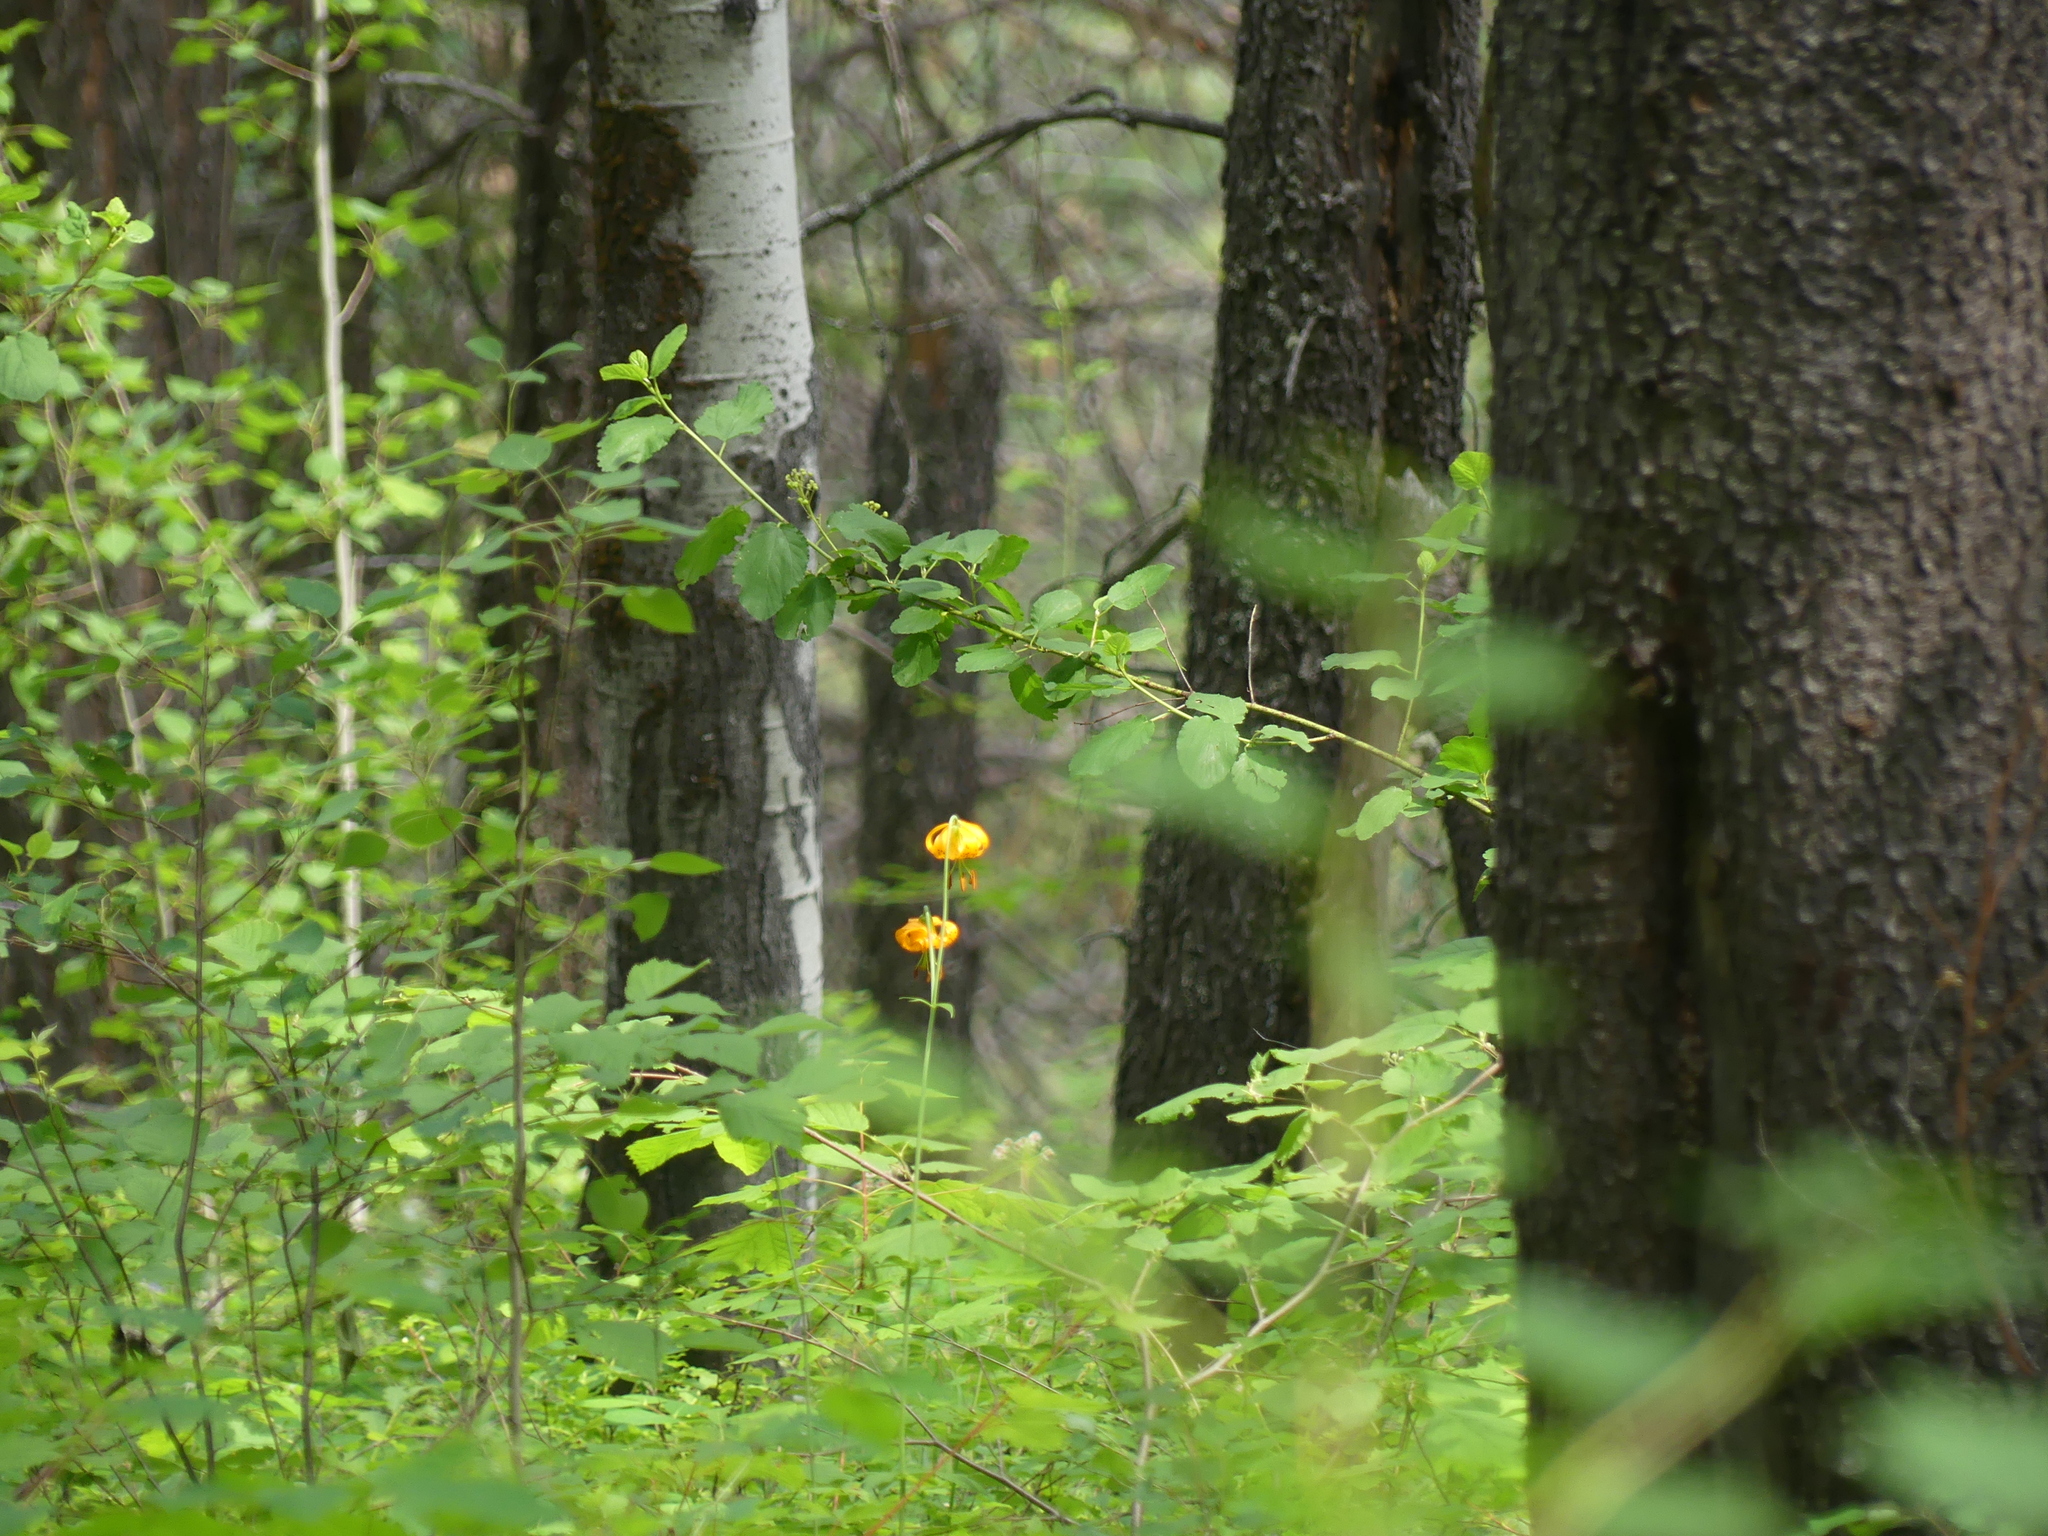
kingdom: Plantae
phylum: Tracheophyta
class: Liliopsida
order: Liliales
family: Liliaceae
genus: Lilium
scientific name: Lilium columbianum
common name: Columbia lily
